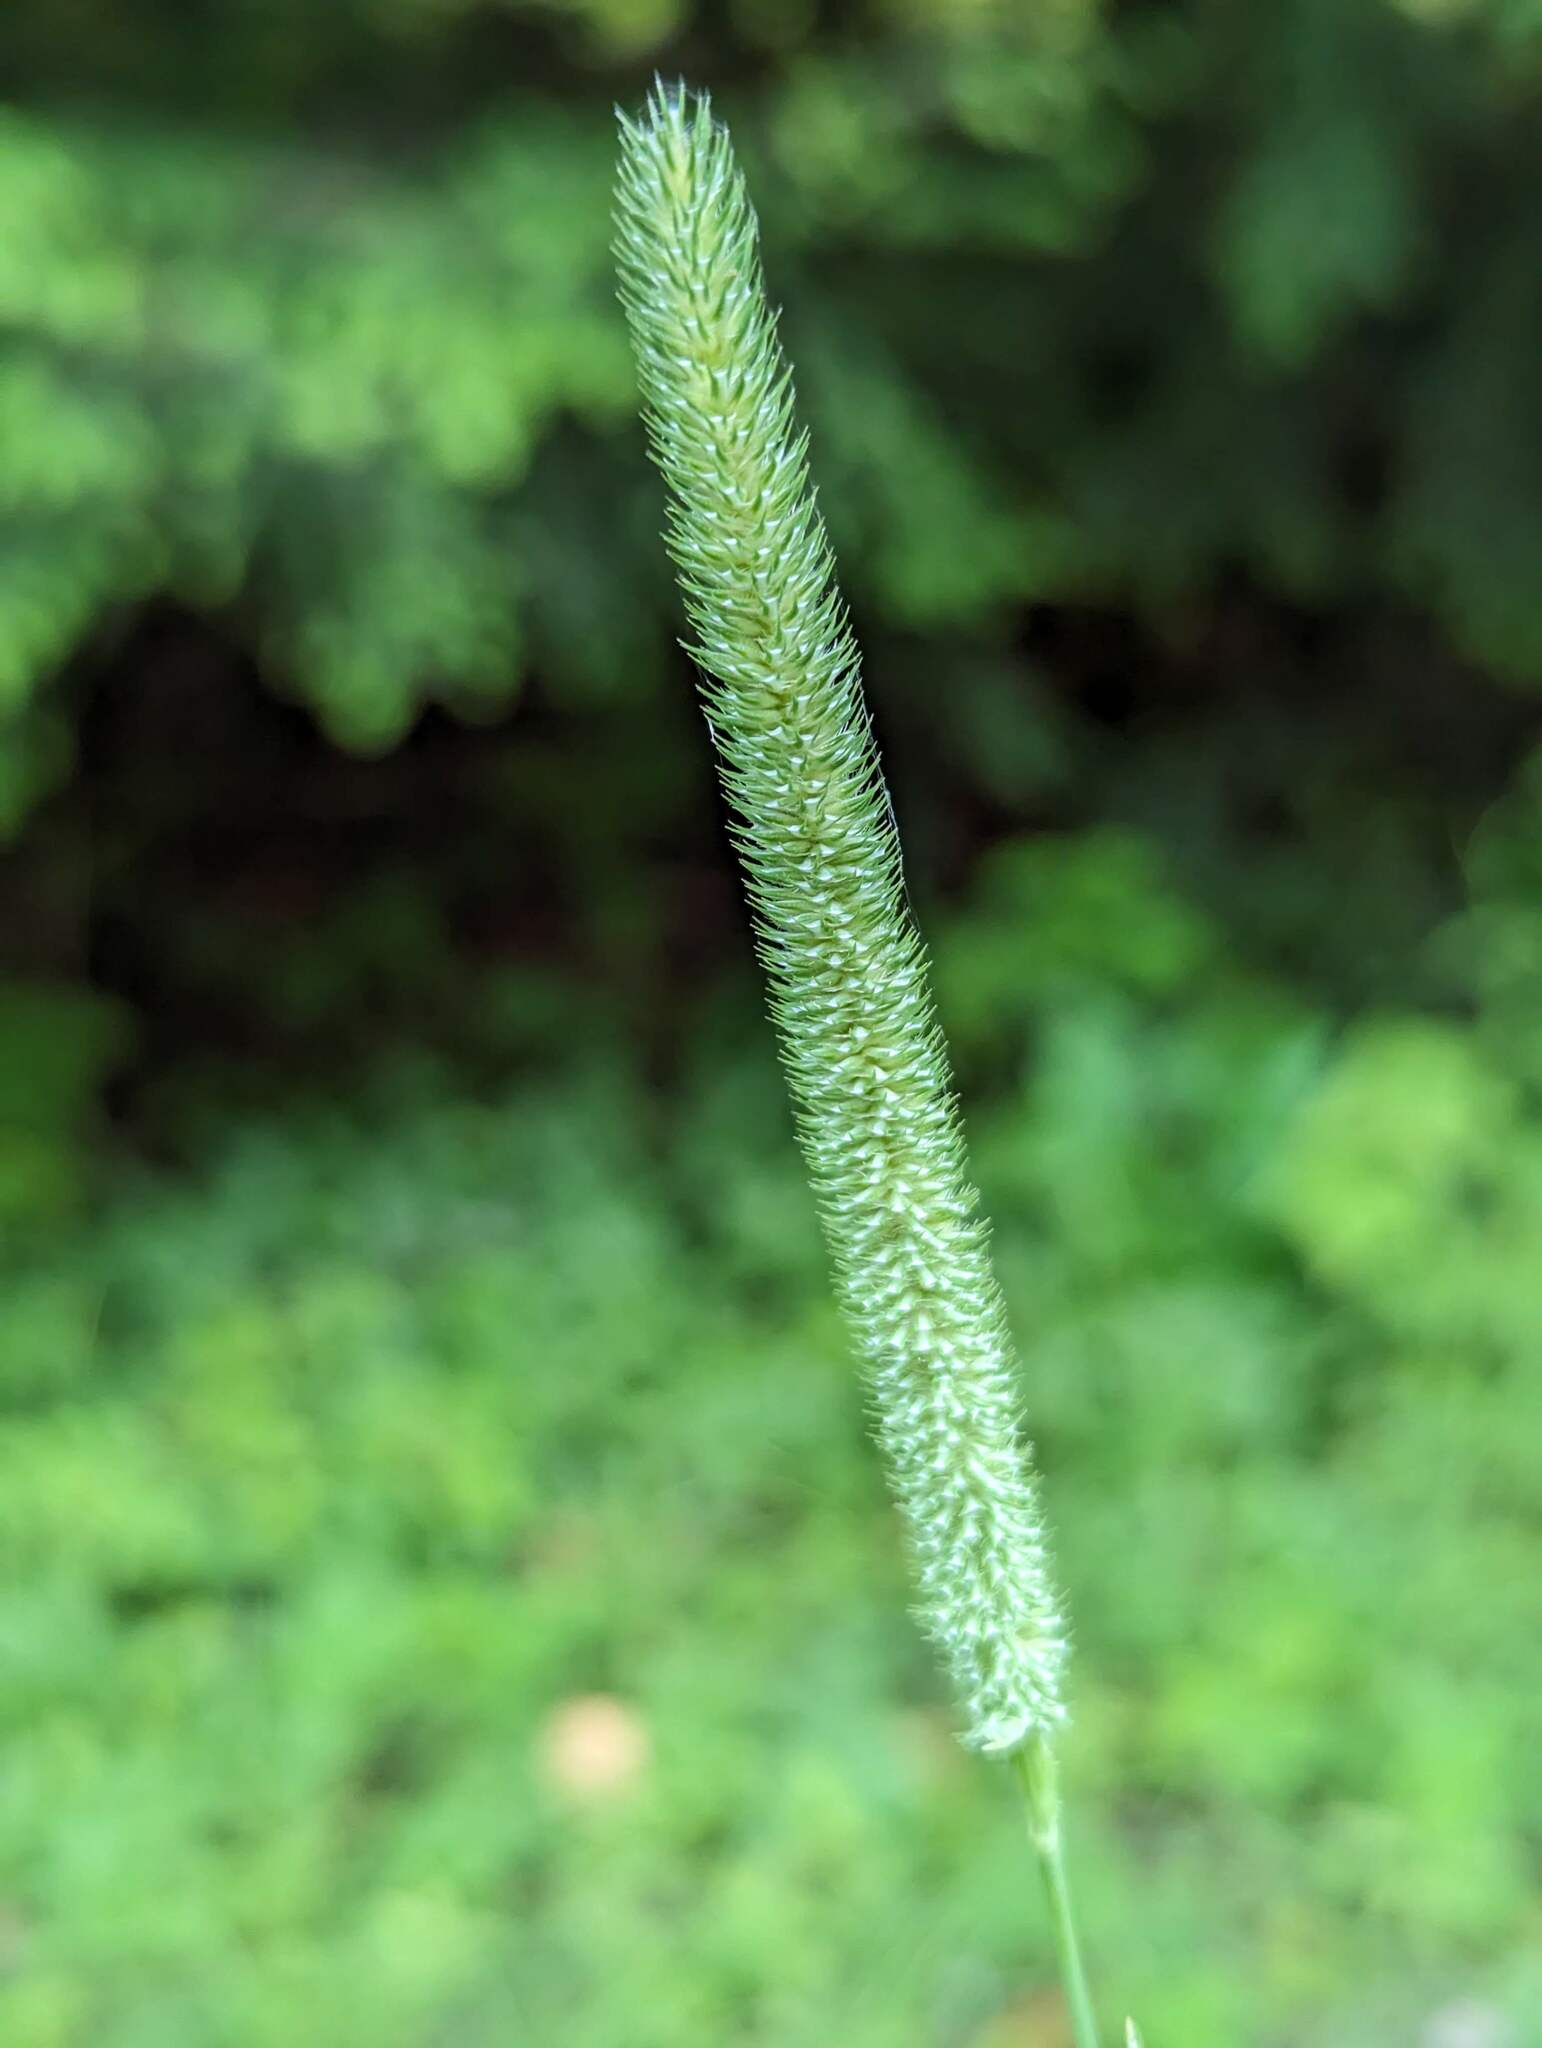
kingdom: Plantae
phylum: Tracheophyta
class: Liliopsida
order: Poales
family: Poaceae
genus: Phleum
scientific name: Phleum pratense
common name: Timothy grass
